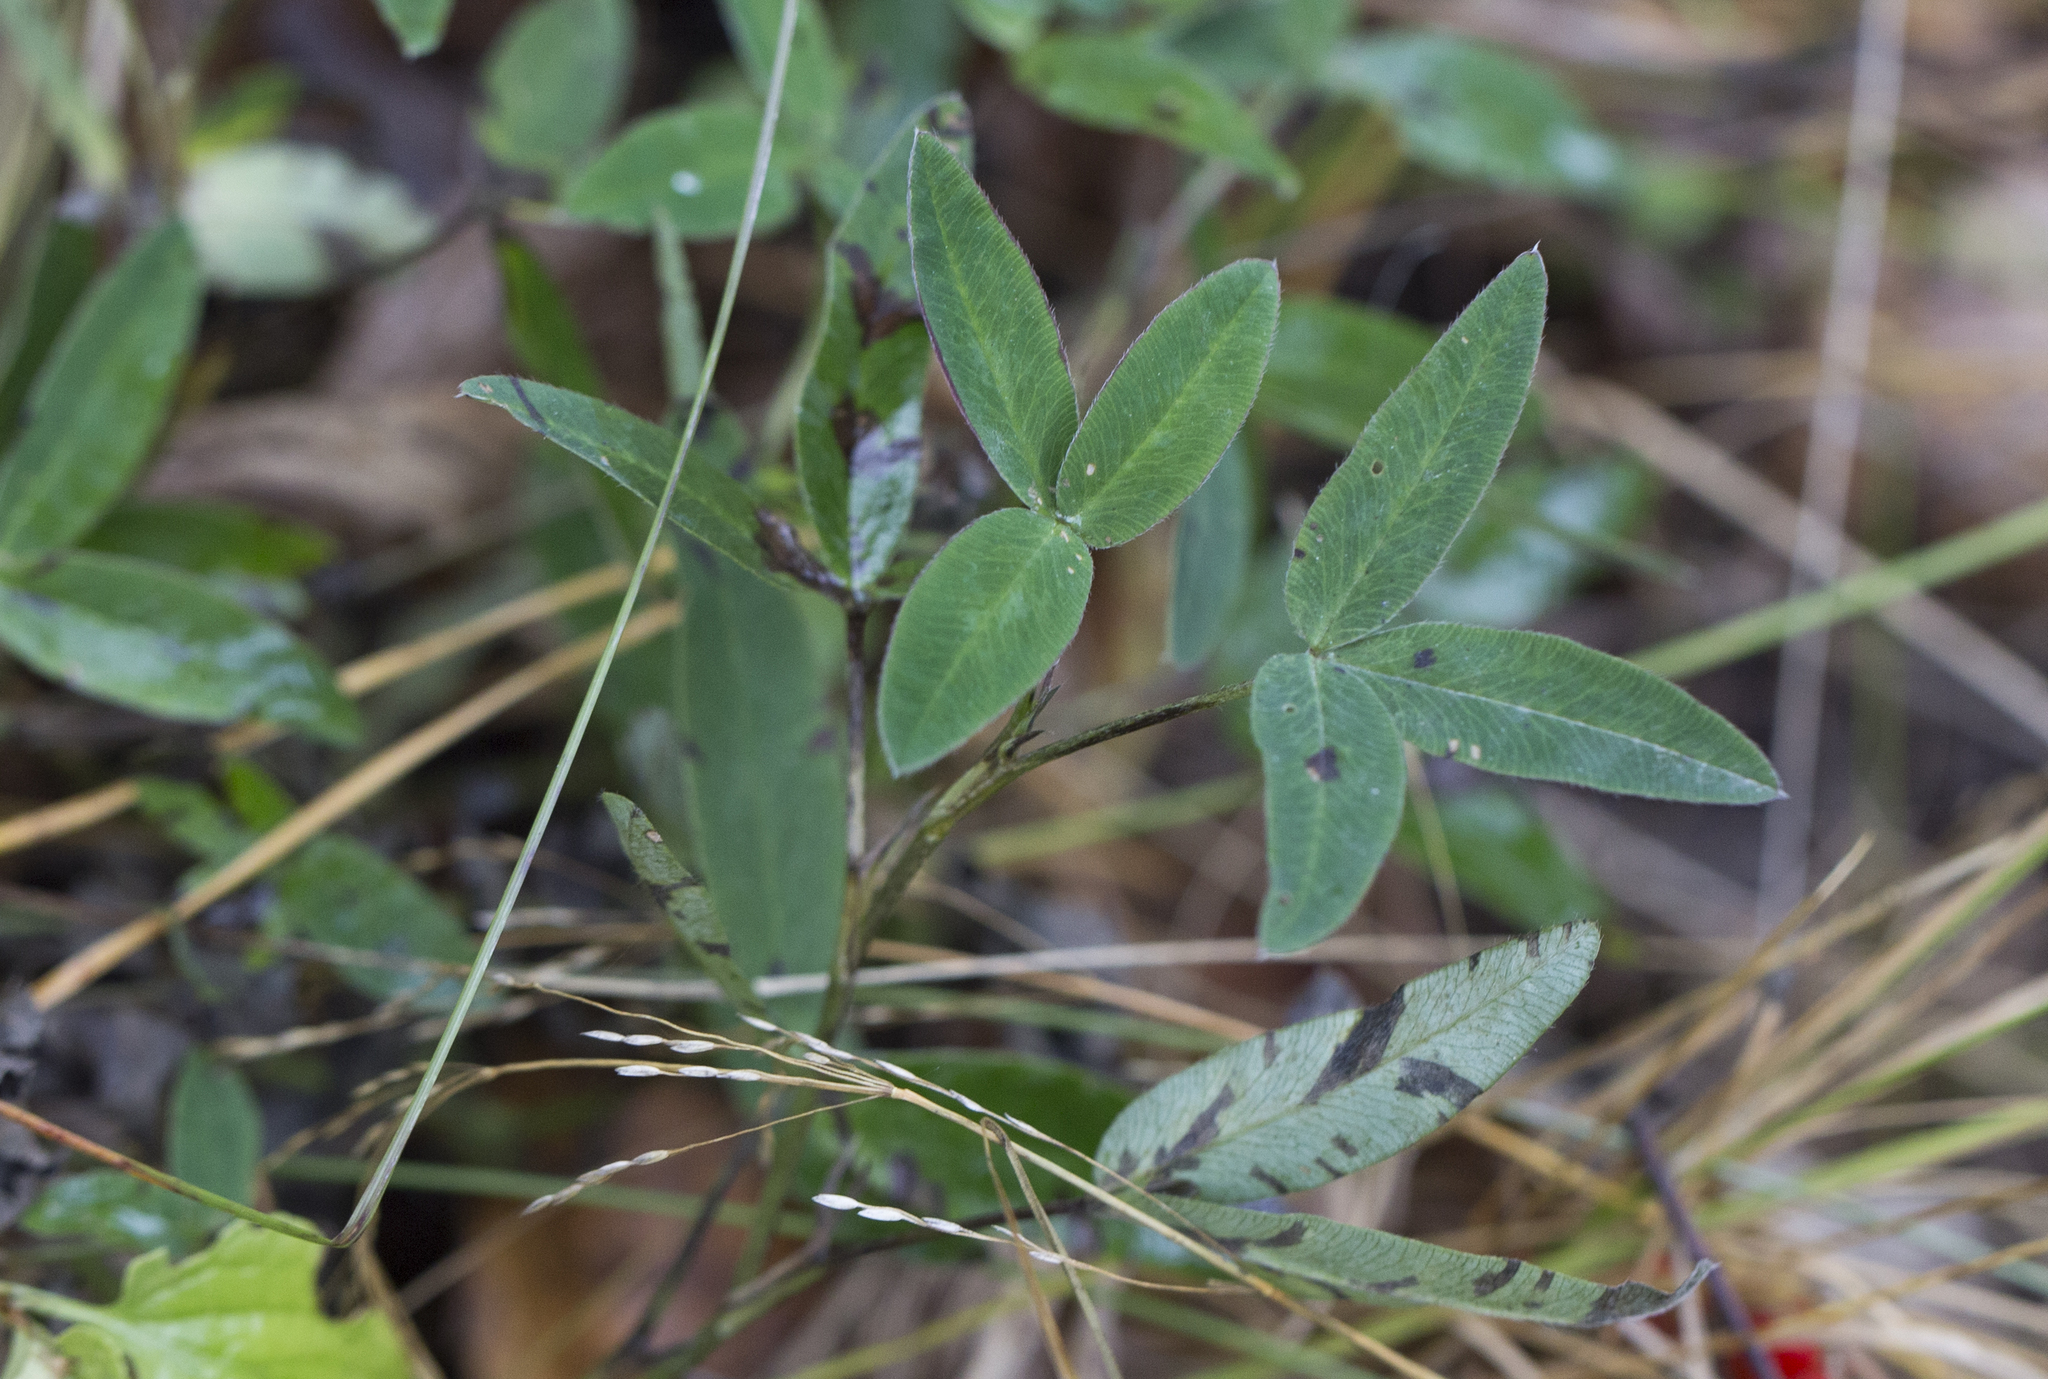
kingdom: Plantae
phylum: Tracheophyta
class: Magnoliopsida
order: Fabales
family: Fabaceae
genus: Trifolium
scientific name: Trifolium medium
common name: Zigzag clover
